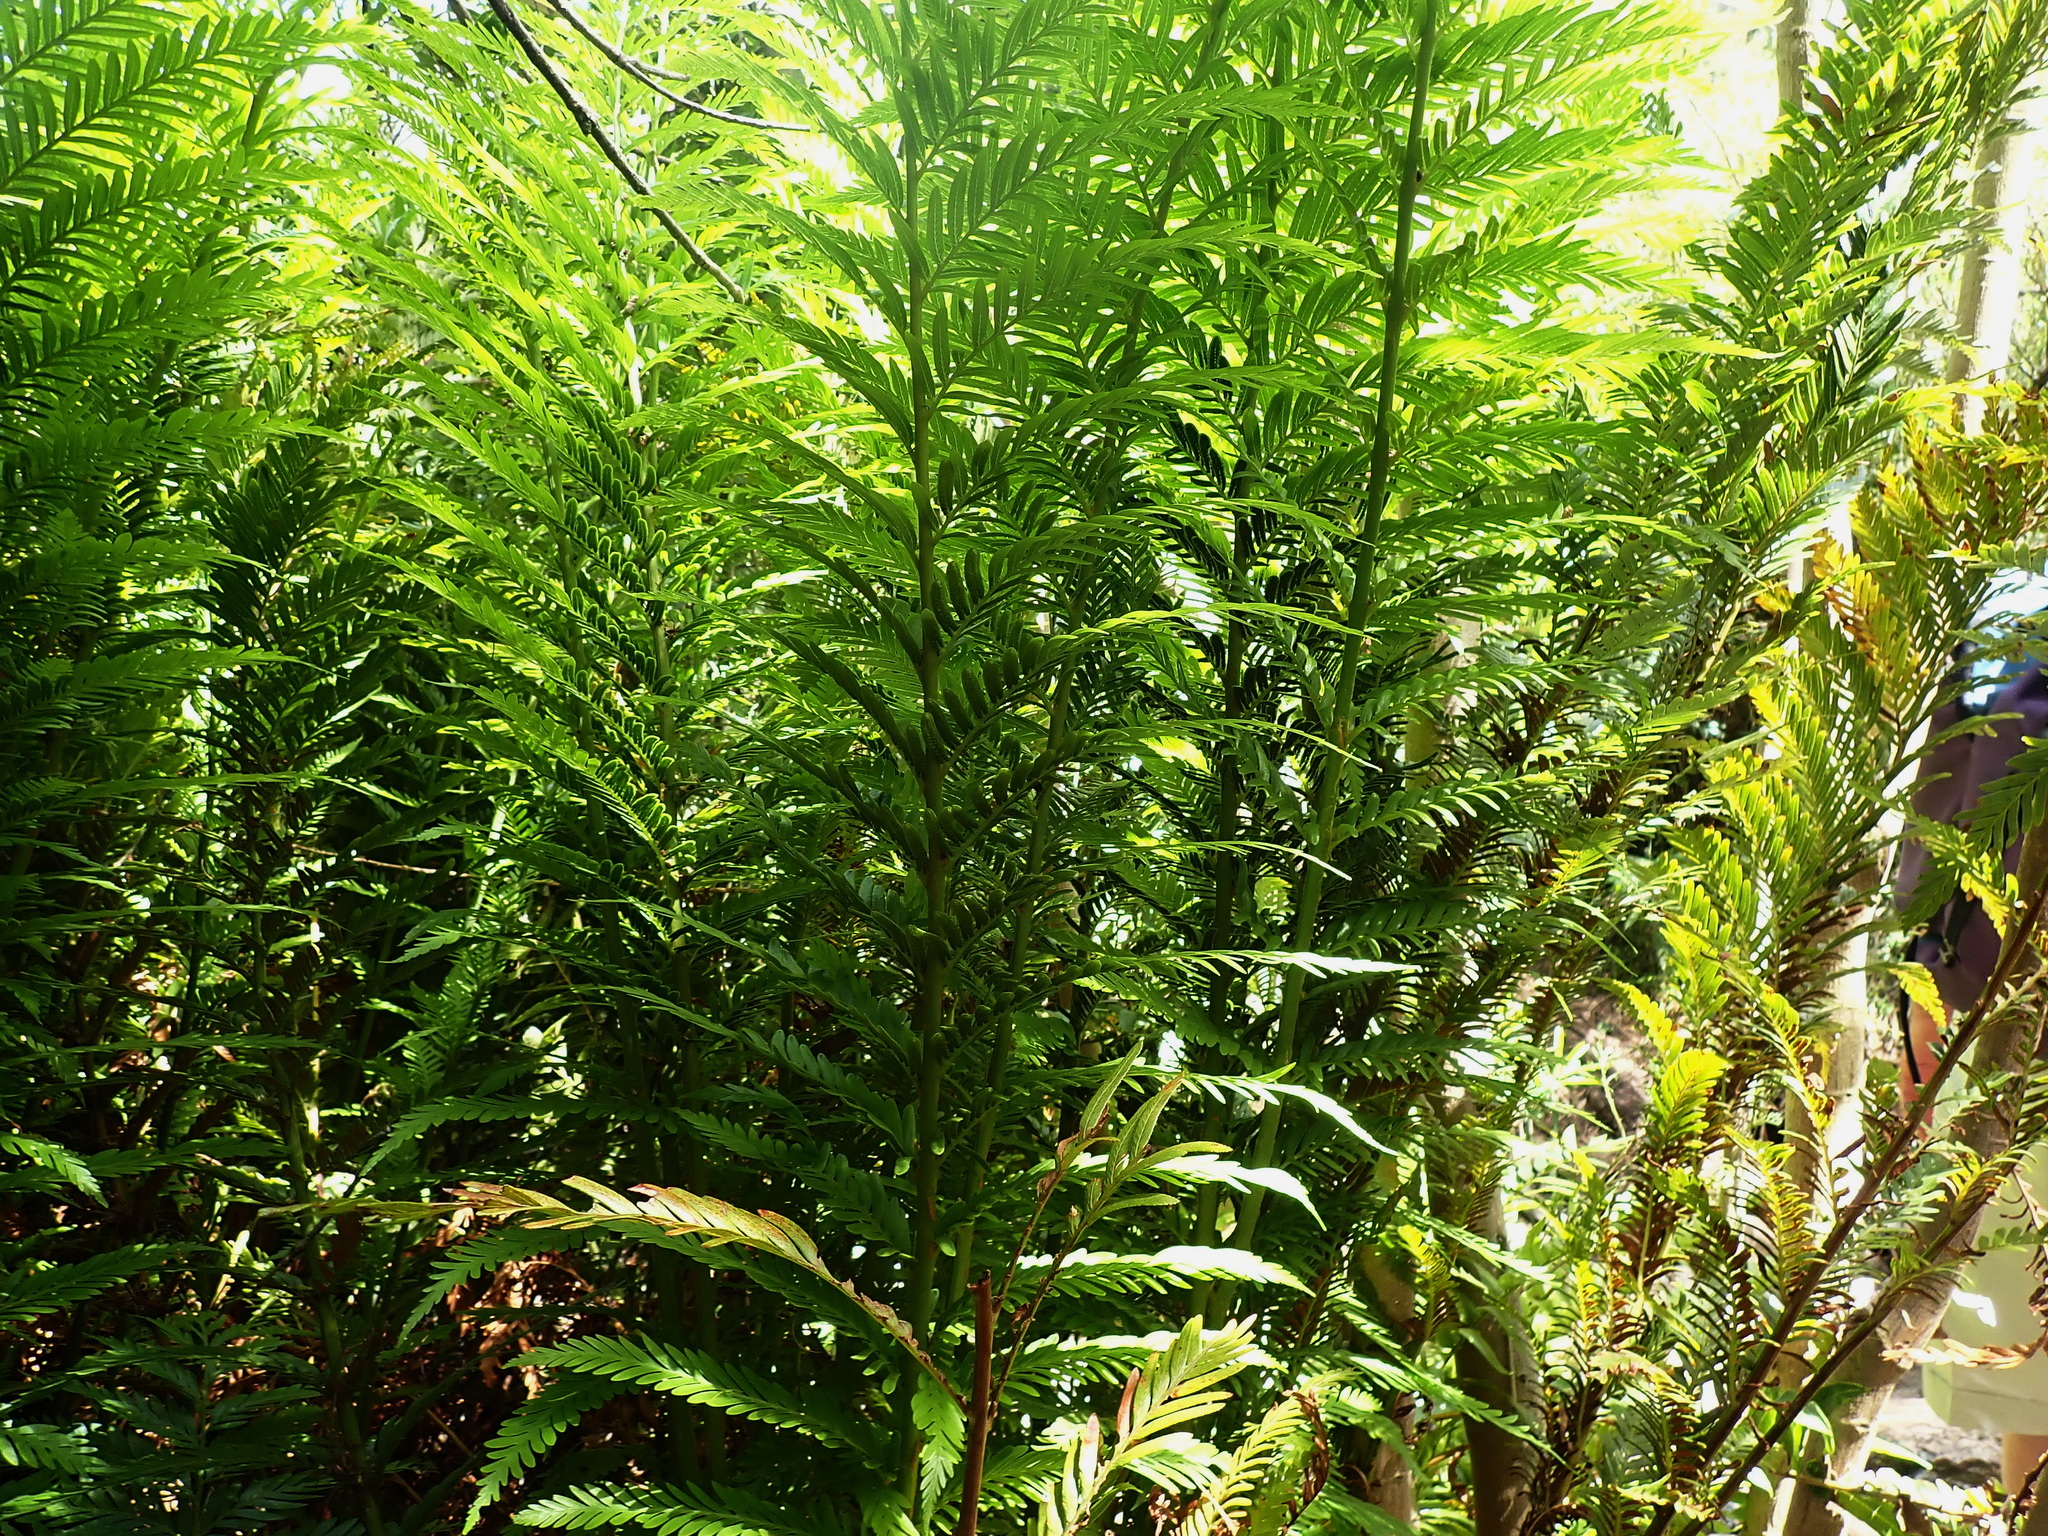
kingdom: Plantae
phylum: Tracheophyta
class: Polypodiopsida
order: Osmundales
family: Osmundaceae
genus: Todea
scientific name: Todea barbara
